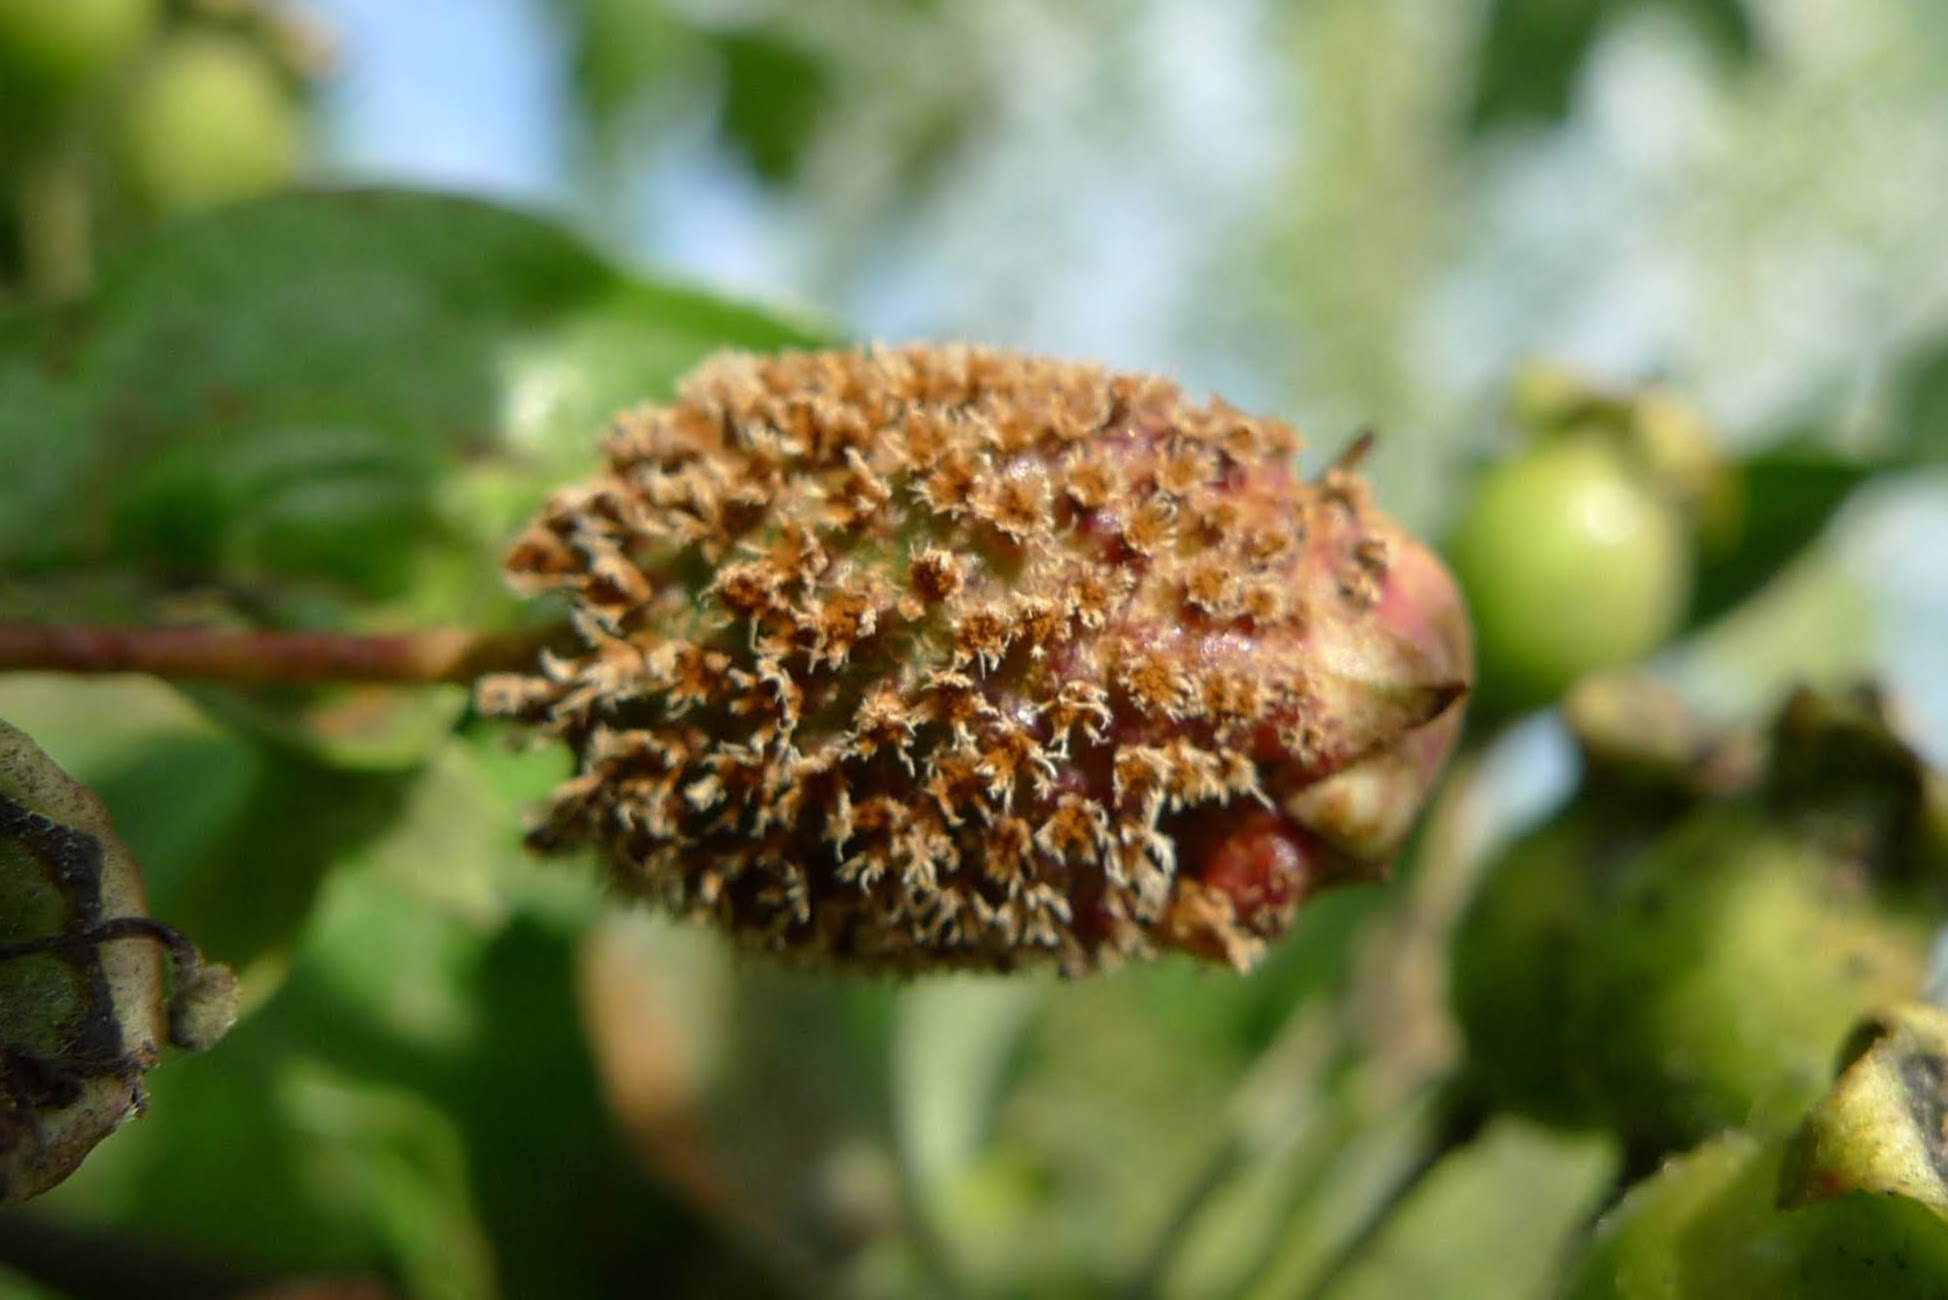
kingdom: Fungi
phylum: Basidiomycota
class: Pucciniomycetes
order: Pucciniales
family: Gymnosporangiaceae
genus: Gymnosporangium
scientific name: Gymnosporangium
